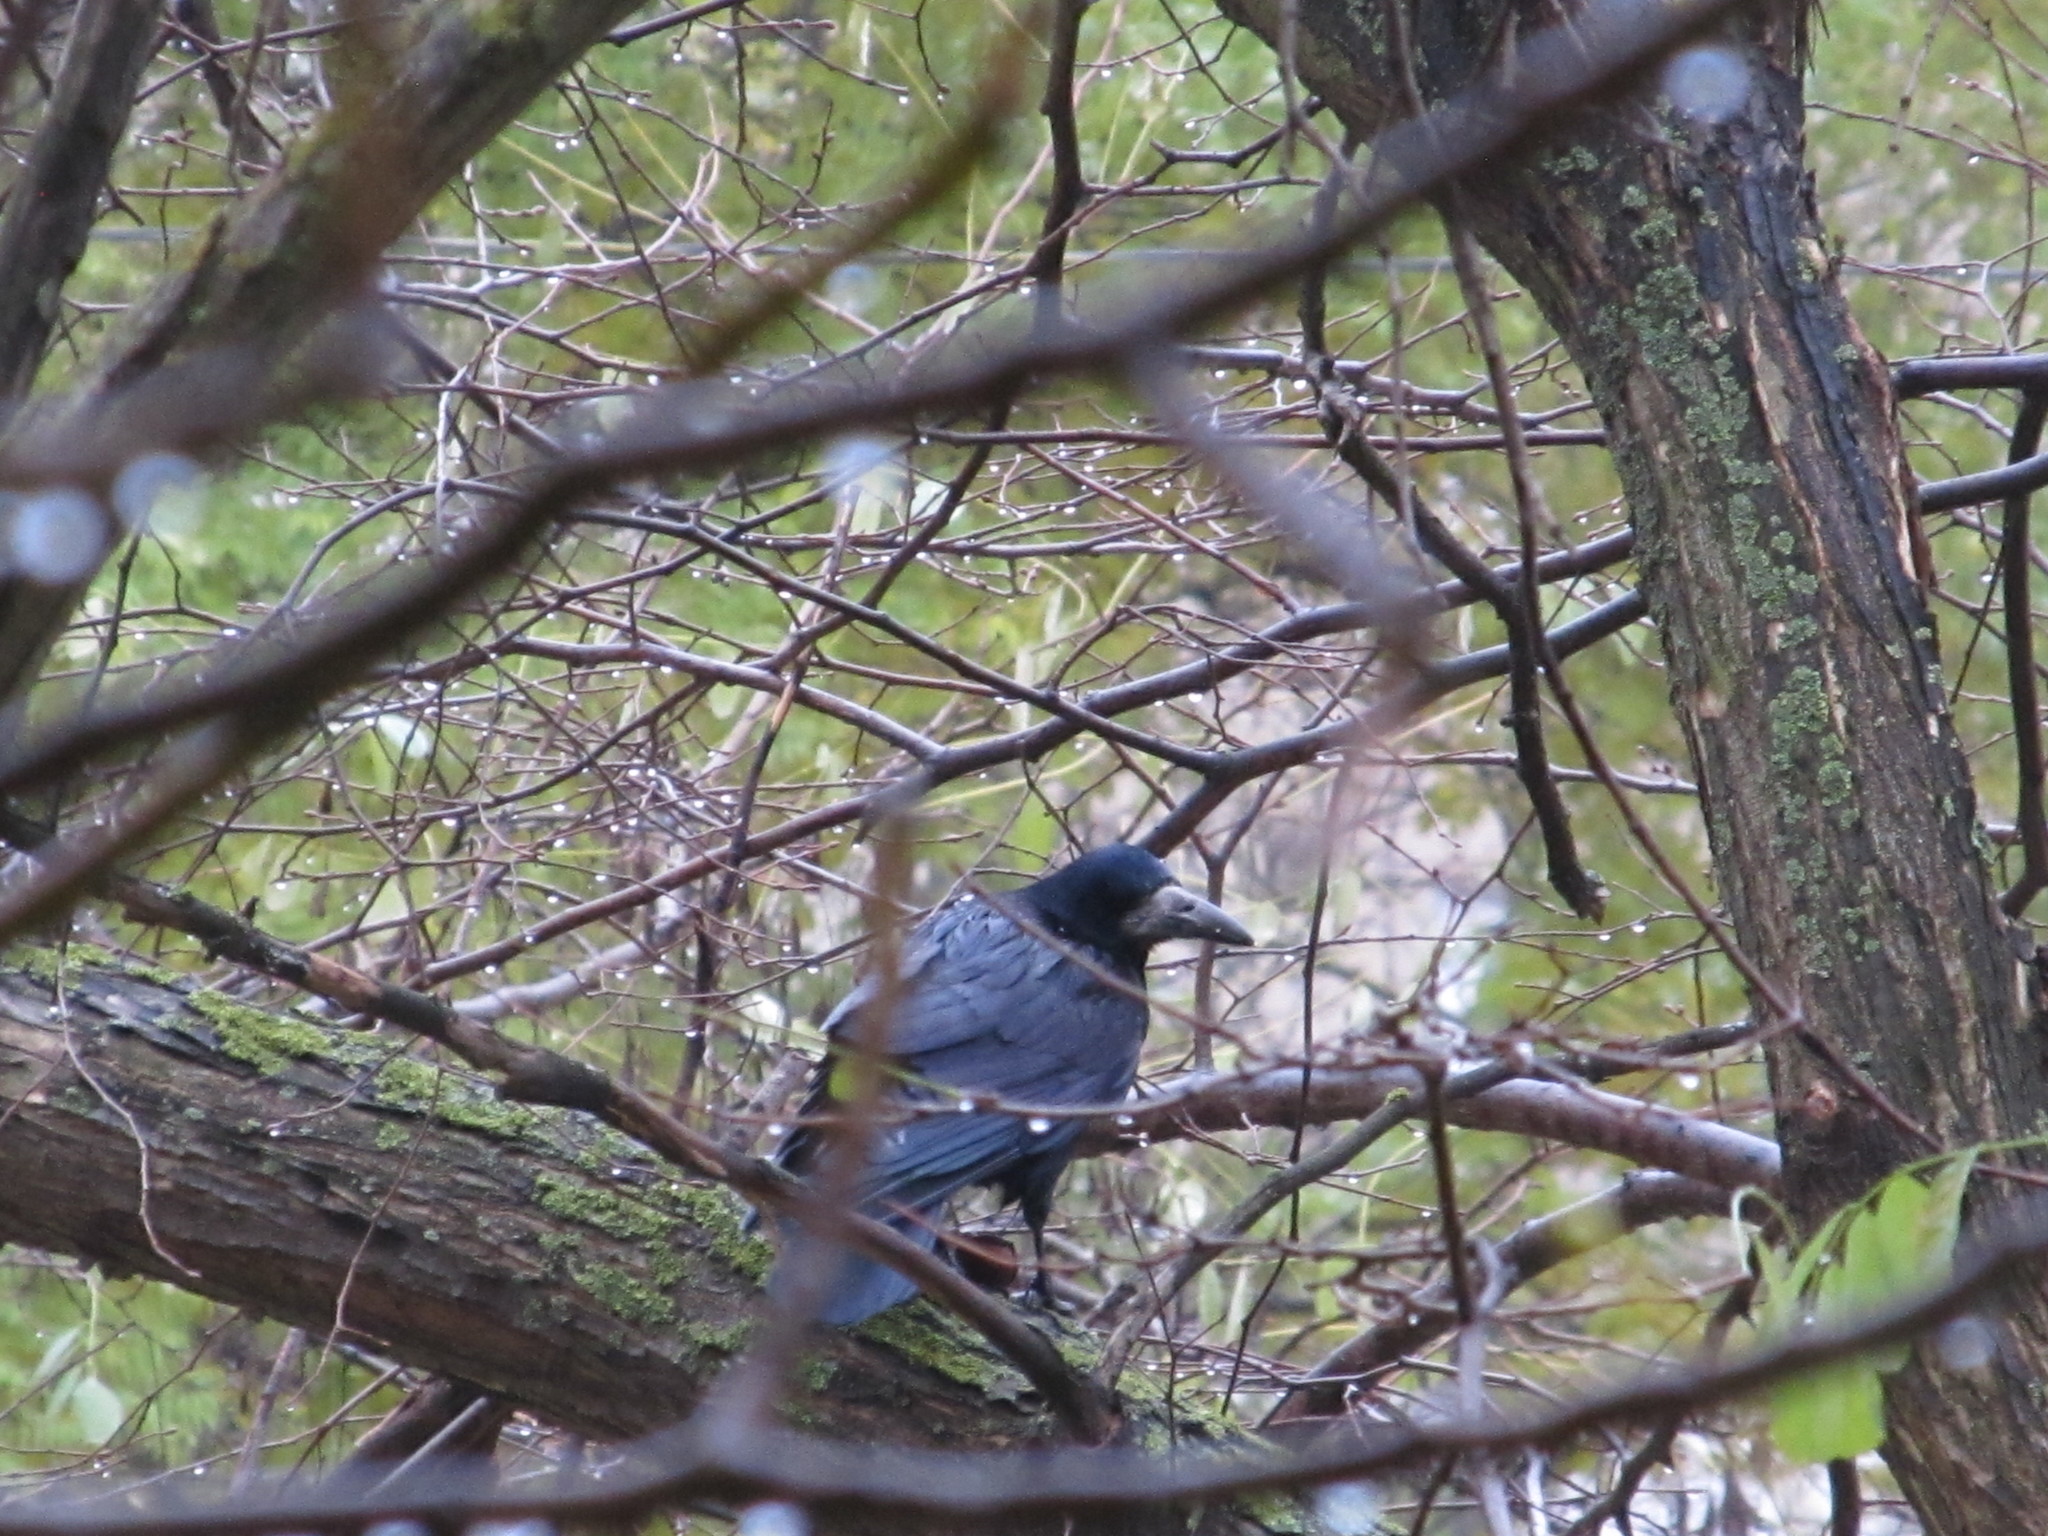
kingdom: Animalia
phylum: Chordata
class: Aves
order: Passeriformes
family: Corvidae
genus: Corvus
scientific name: Corvus frugilegus
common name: Rook
